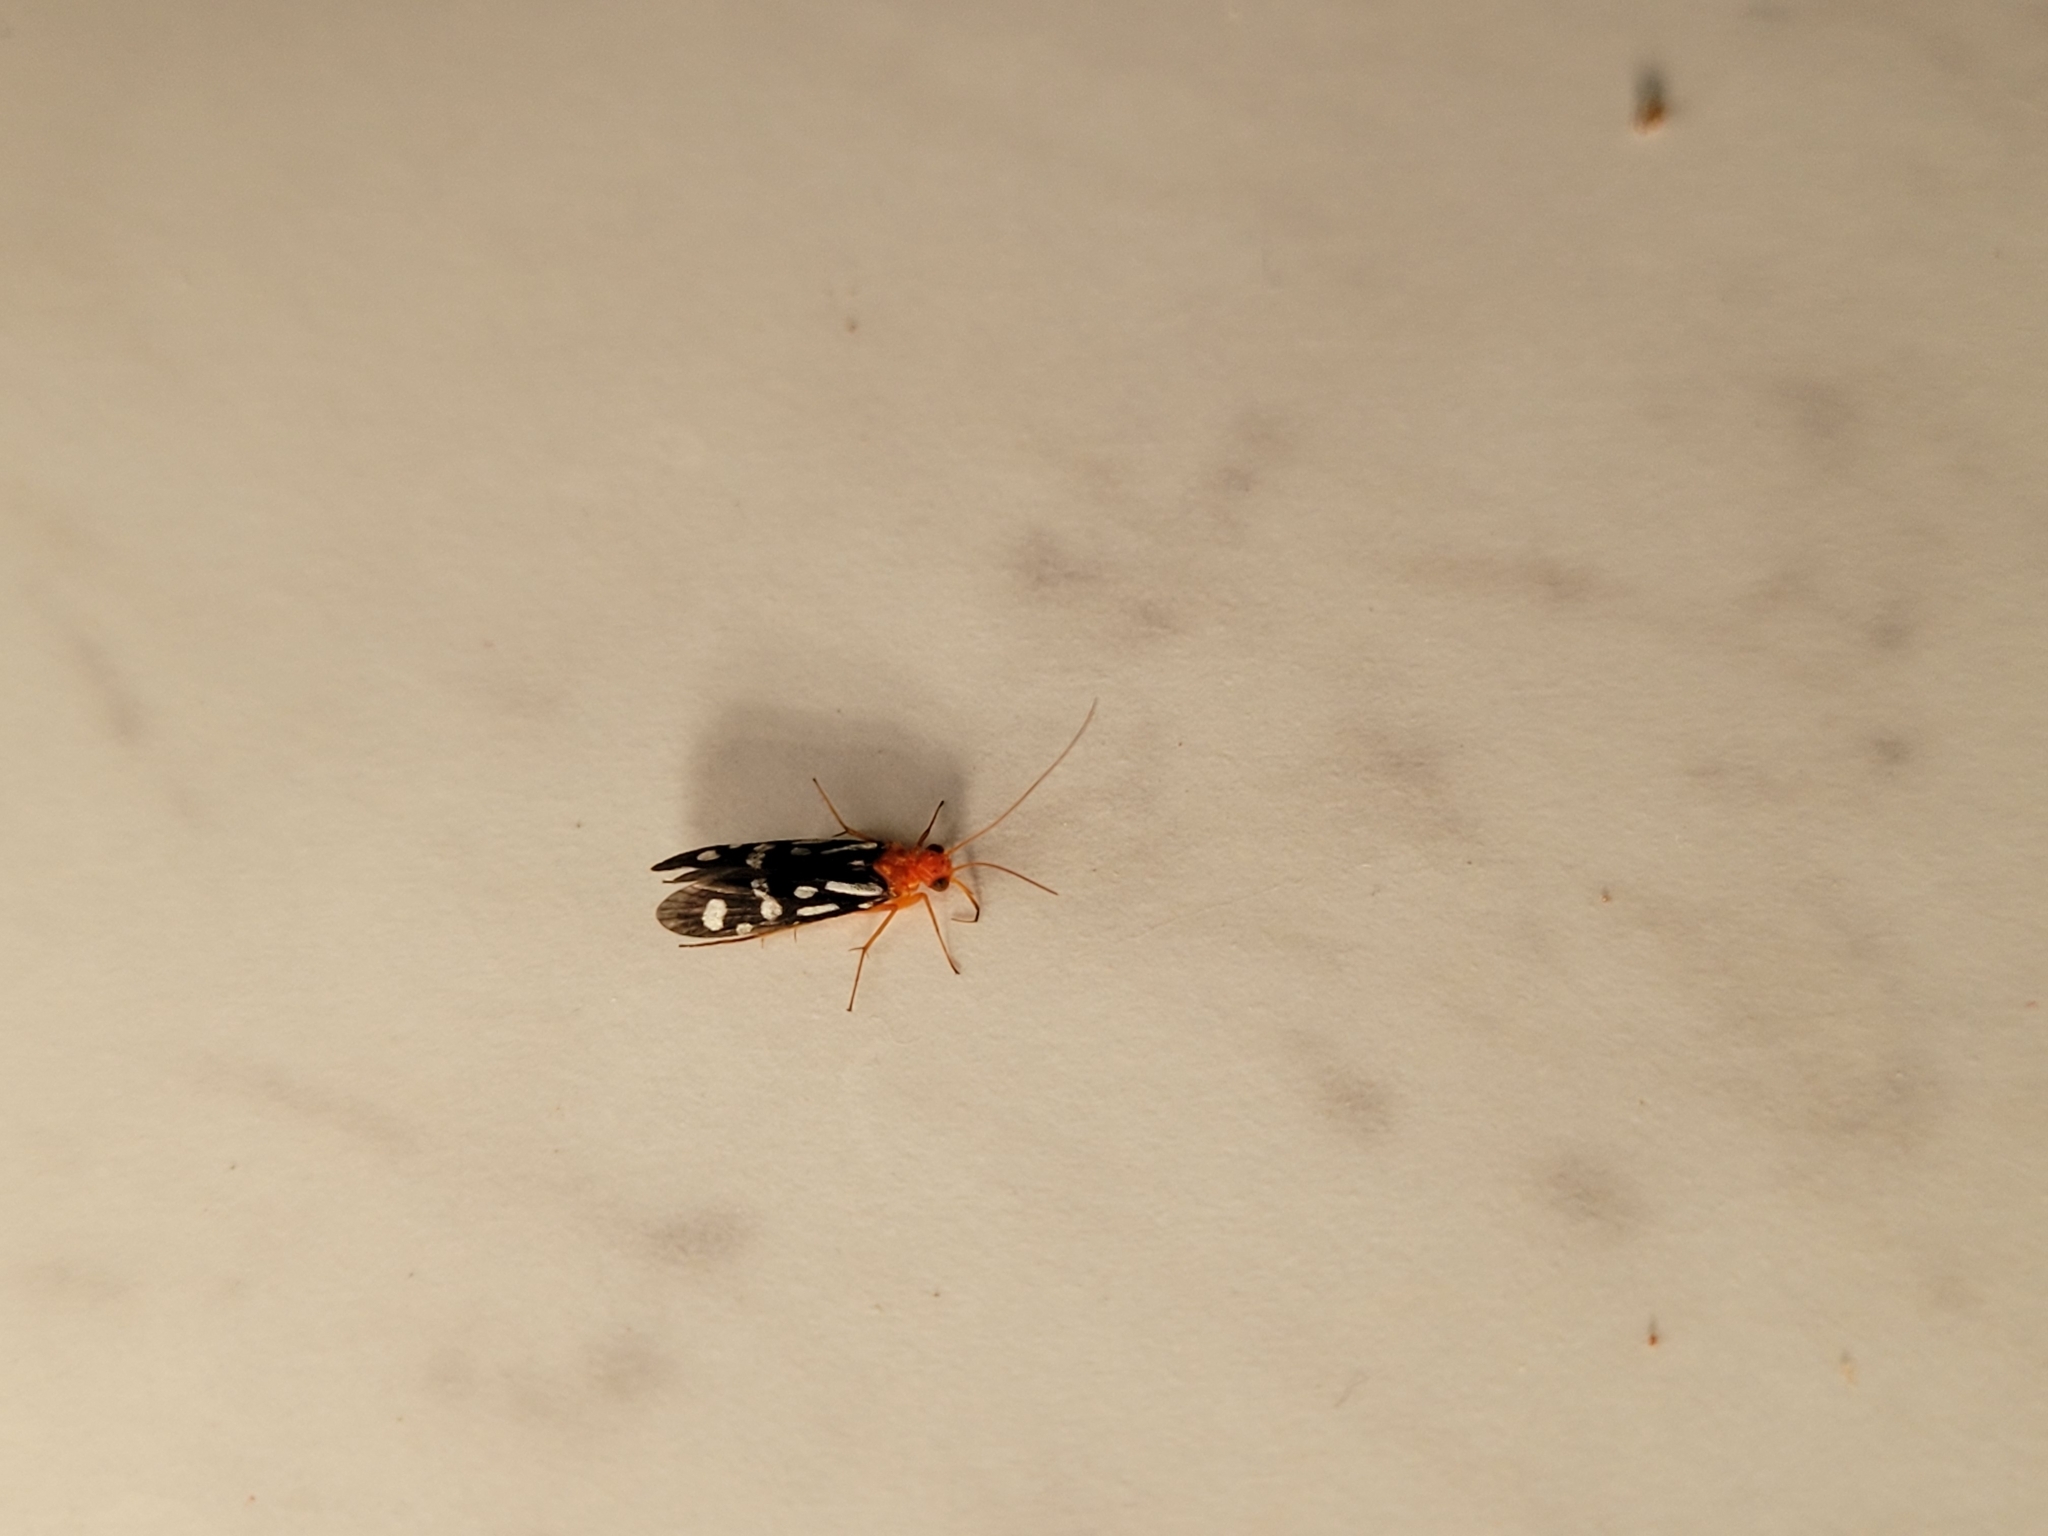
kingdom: Animalia
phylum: Arthropoda
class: Insecta
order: Trichoptera
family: Philopotamidae
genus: Chimarra
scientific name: Chimarra albomaculata
